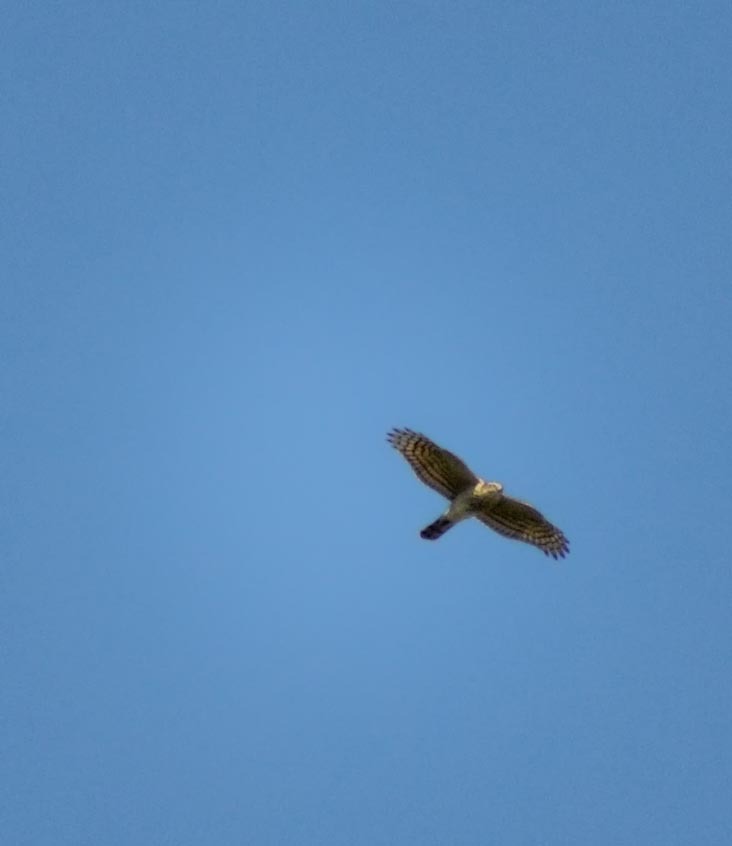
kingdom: Animalia
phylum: Chordata
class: Aves
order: Accipitriformes
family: Accipitridae
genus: Accipiter
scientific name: Accipiter nisus
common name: Eurasian sparrowhawk
